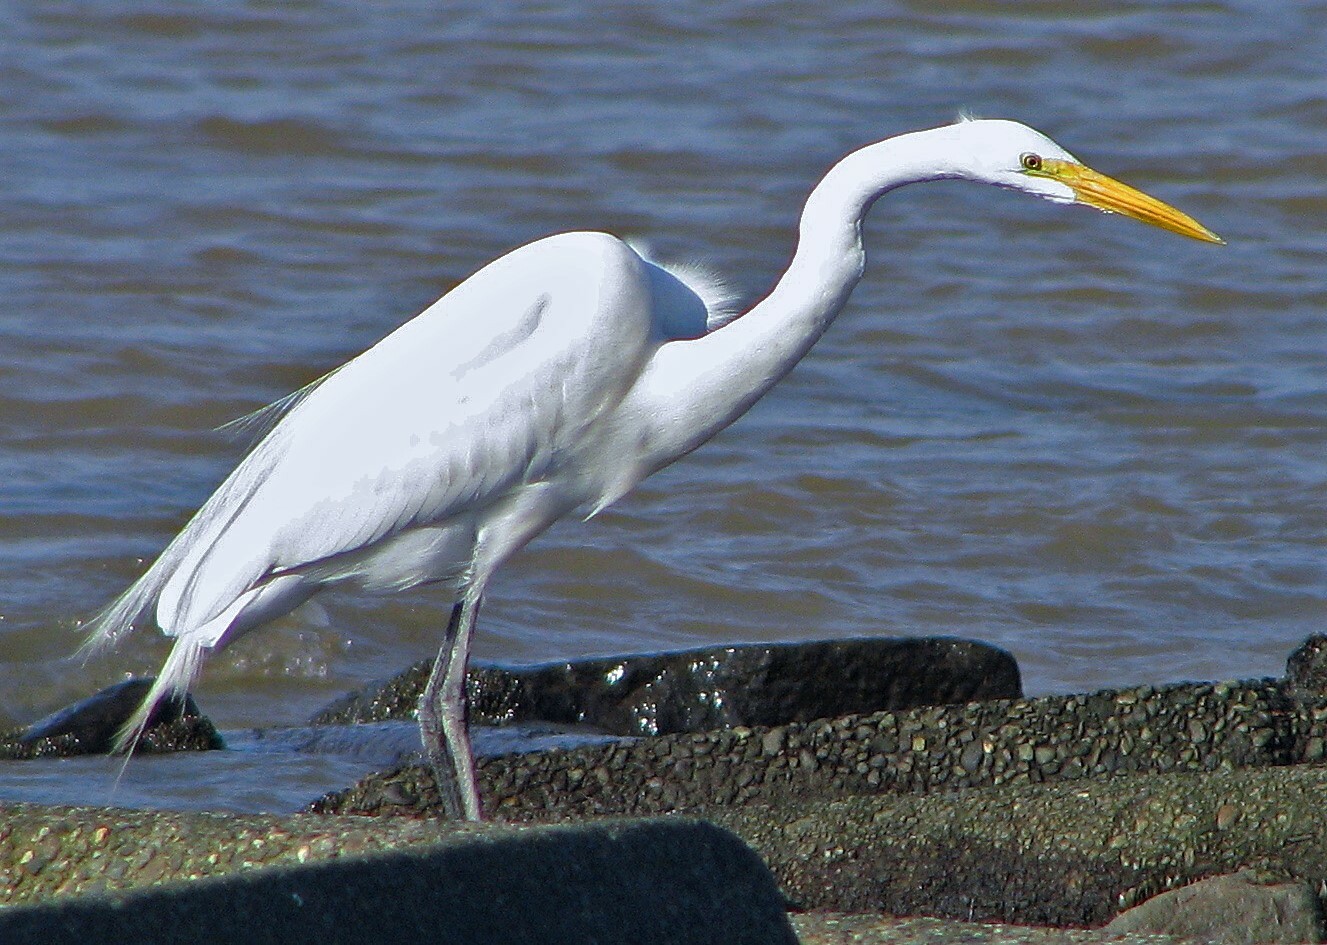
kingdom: Animalia
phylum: Chordata
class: Aves
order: Pelecaniformes
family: Ardeidae
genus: Ardea
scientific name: Ardea alba
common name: Great egret
